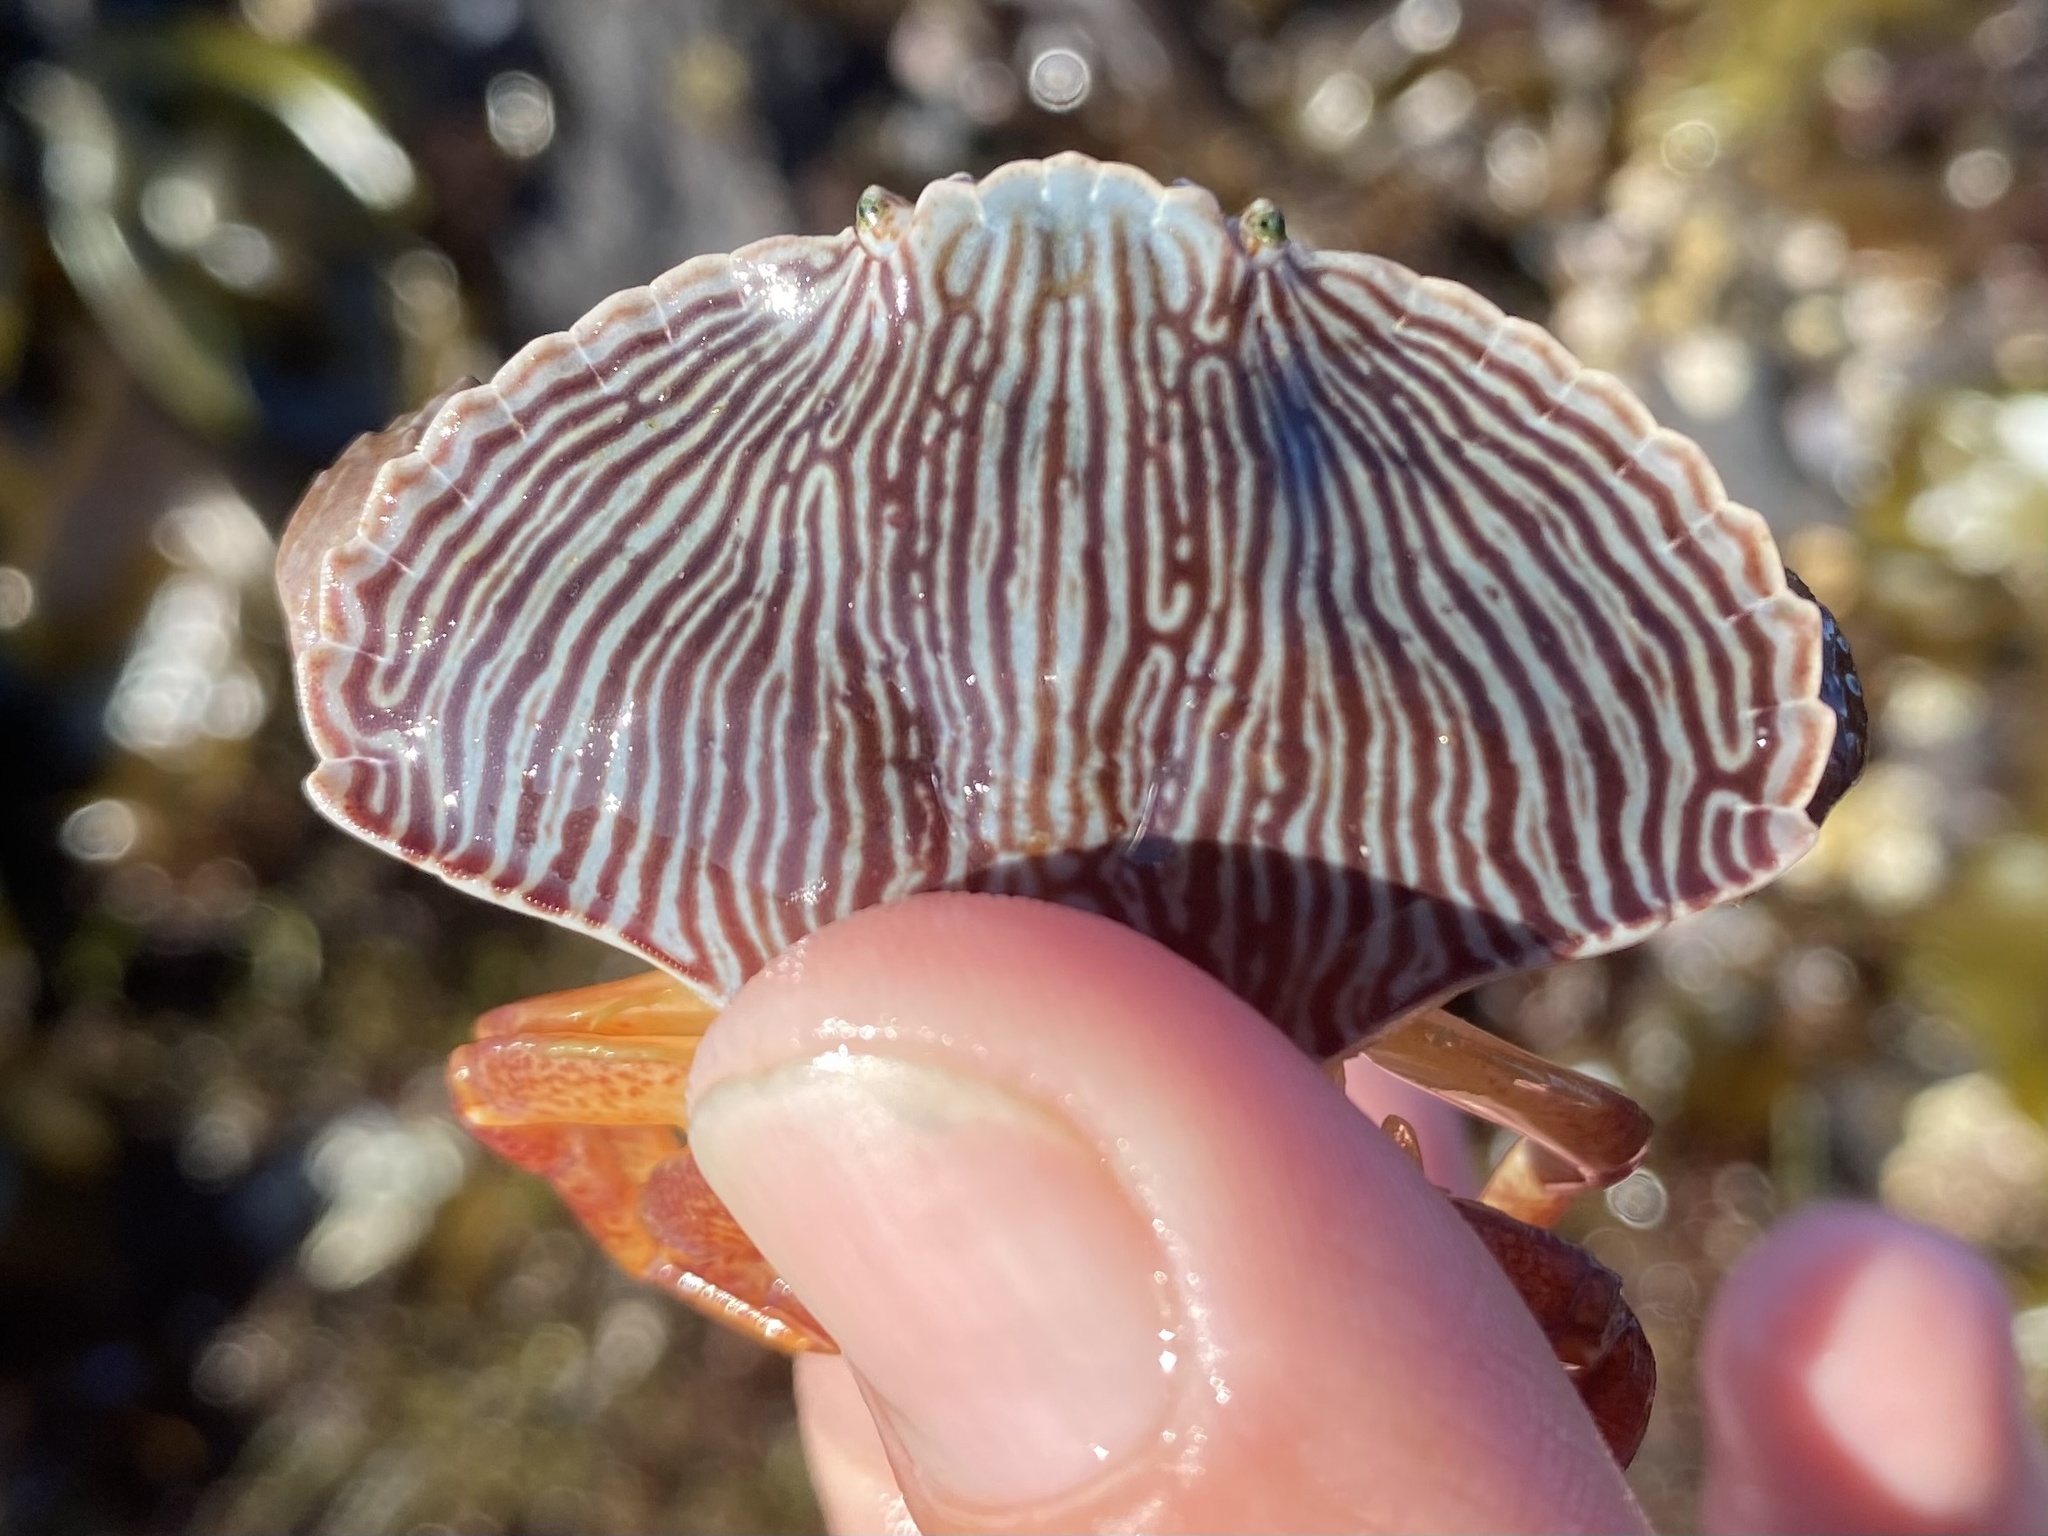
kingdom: Animalia
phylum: Arthropoda
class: Malacostraca
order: Decapoda
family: Cancridae
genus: Cancer
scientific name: Cancer productus
